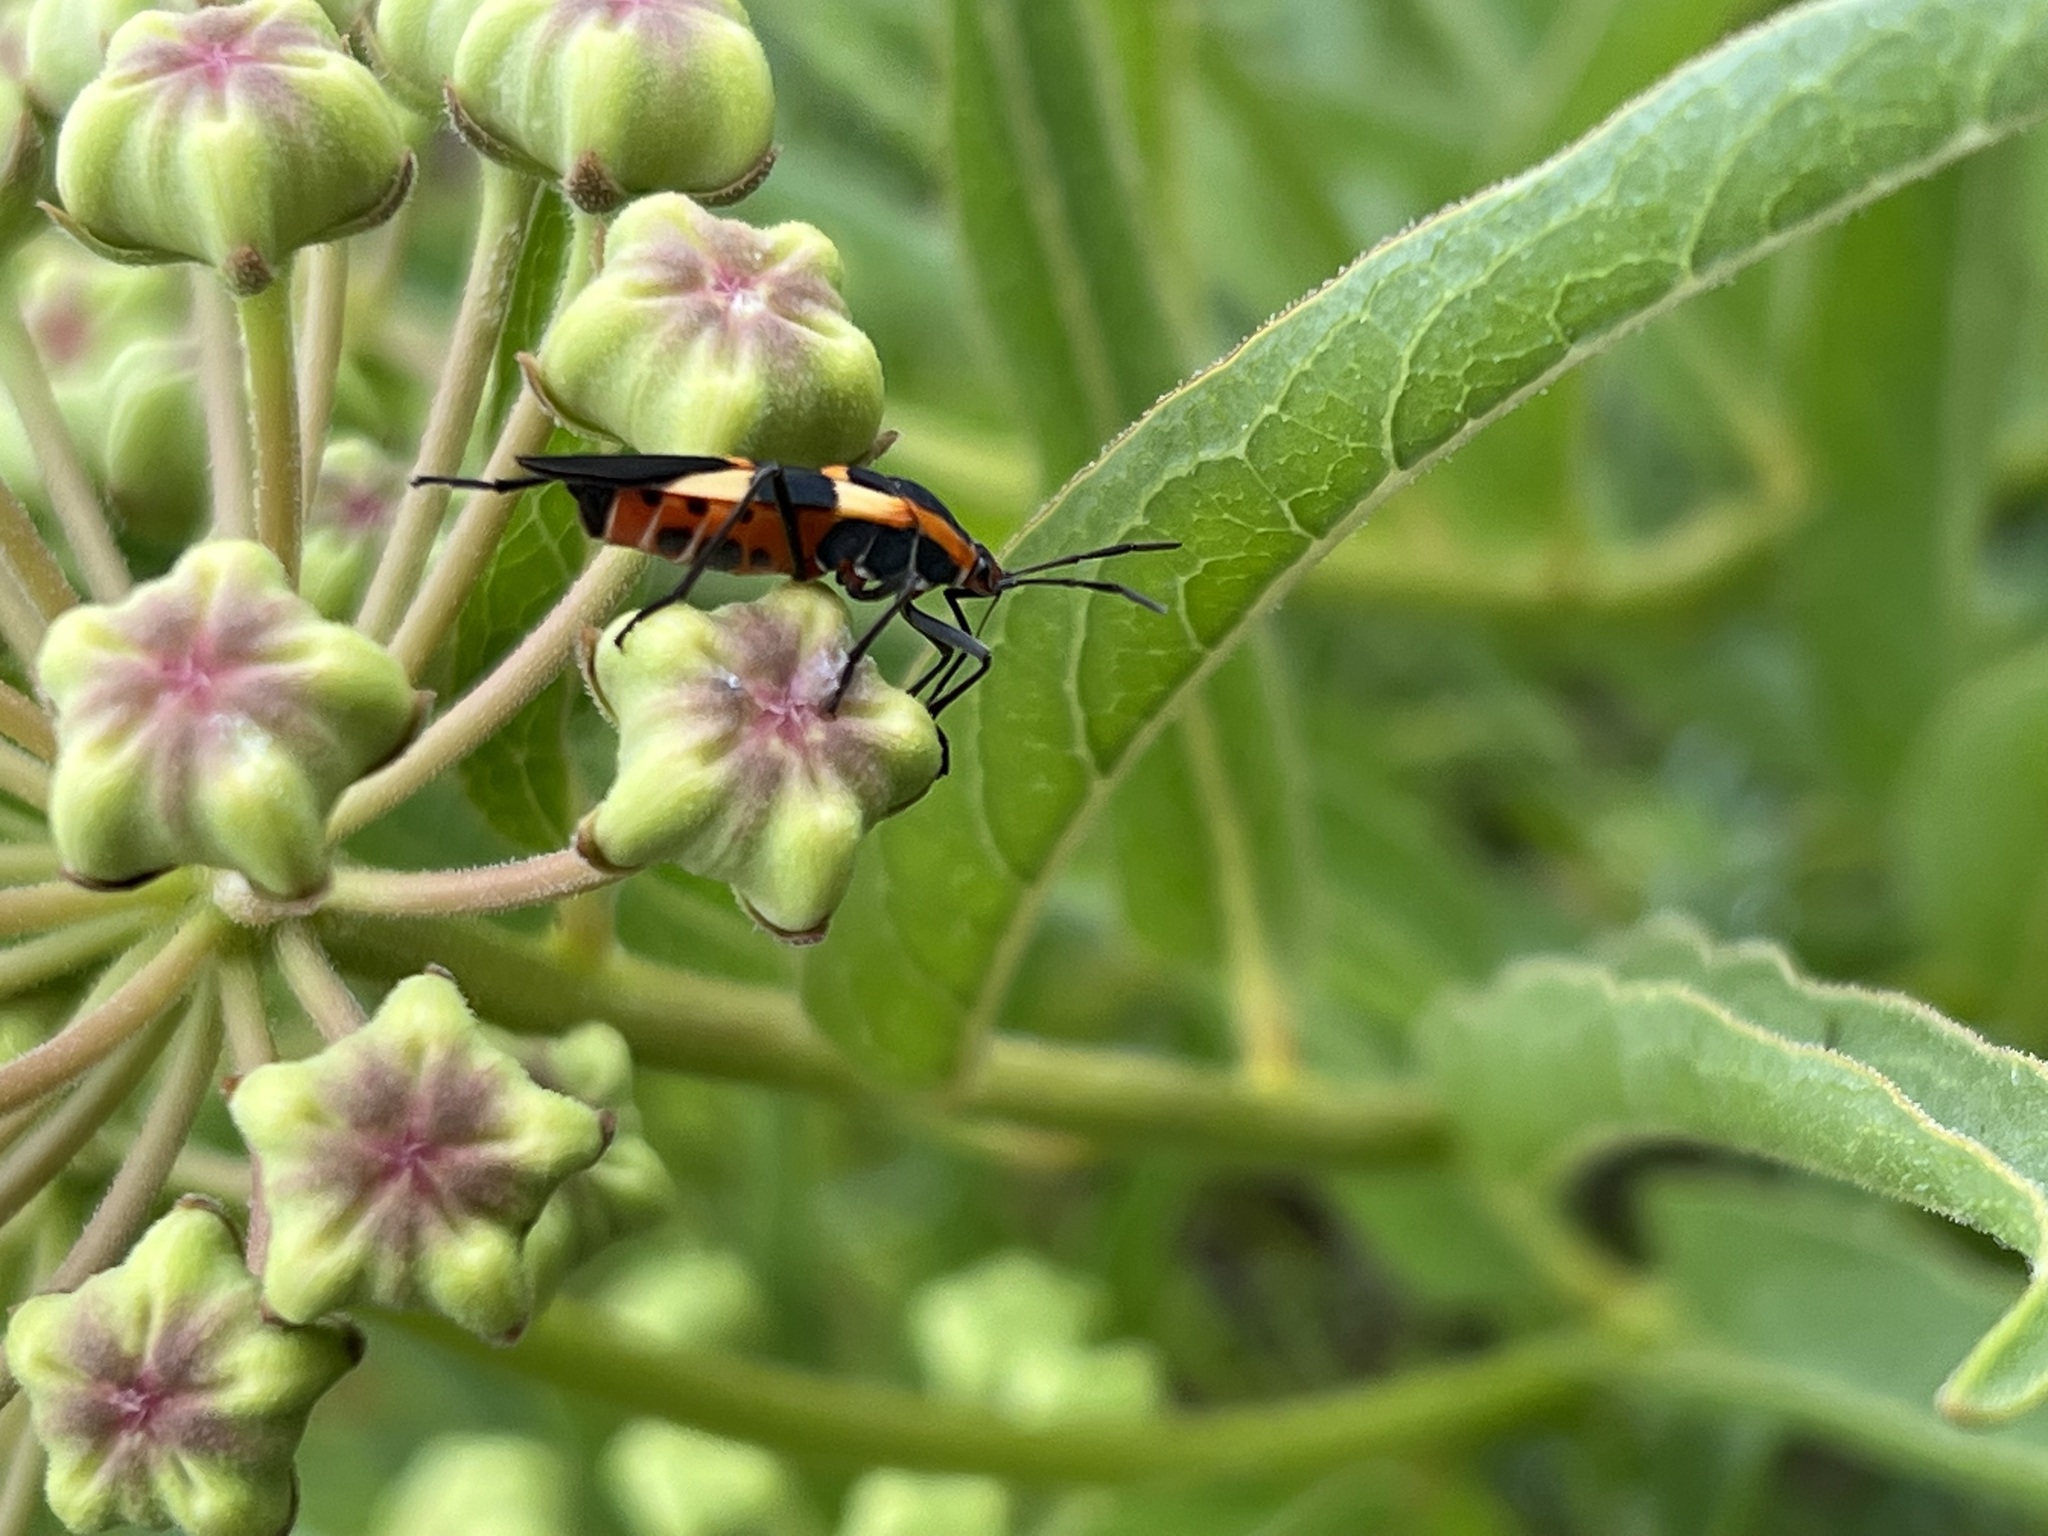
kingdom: Animalia
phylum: Arthropoda
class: Insecta
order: Hemiptera
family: Lygaeidae
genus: Oncopeltus
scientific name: Oncopeltus fasciatus
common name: Large milkweed bug
